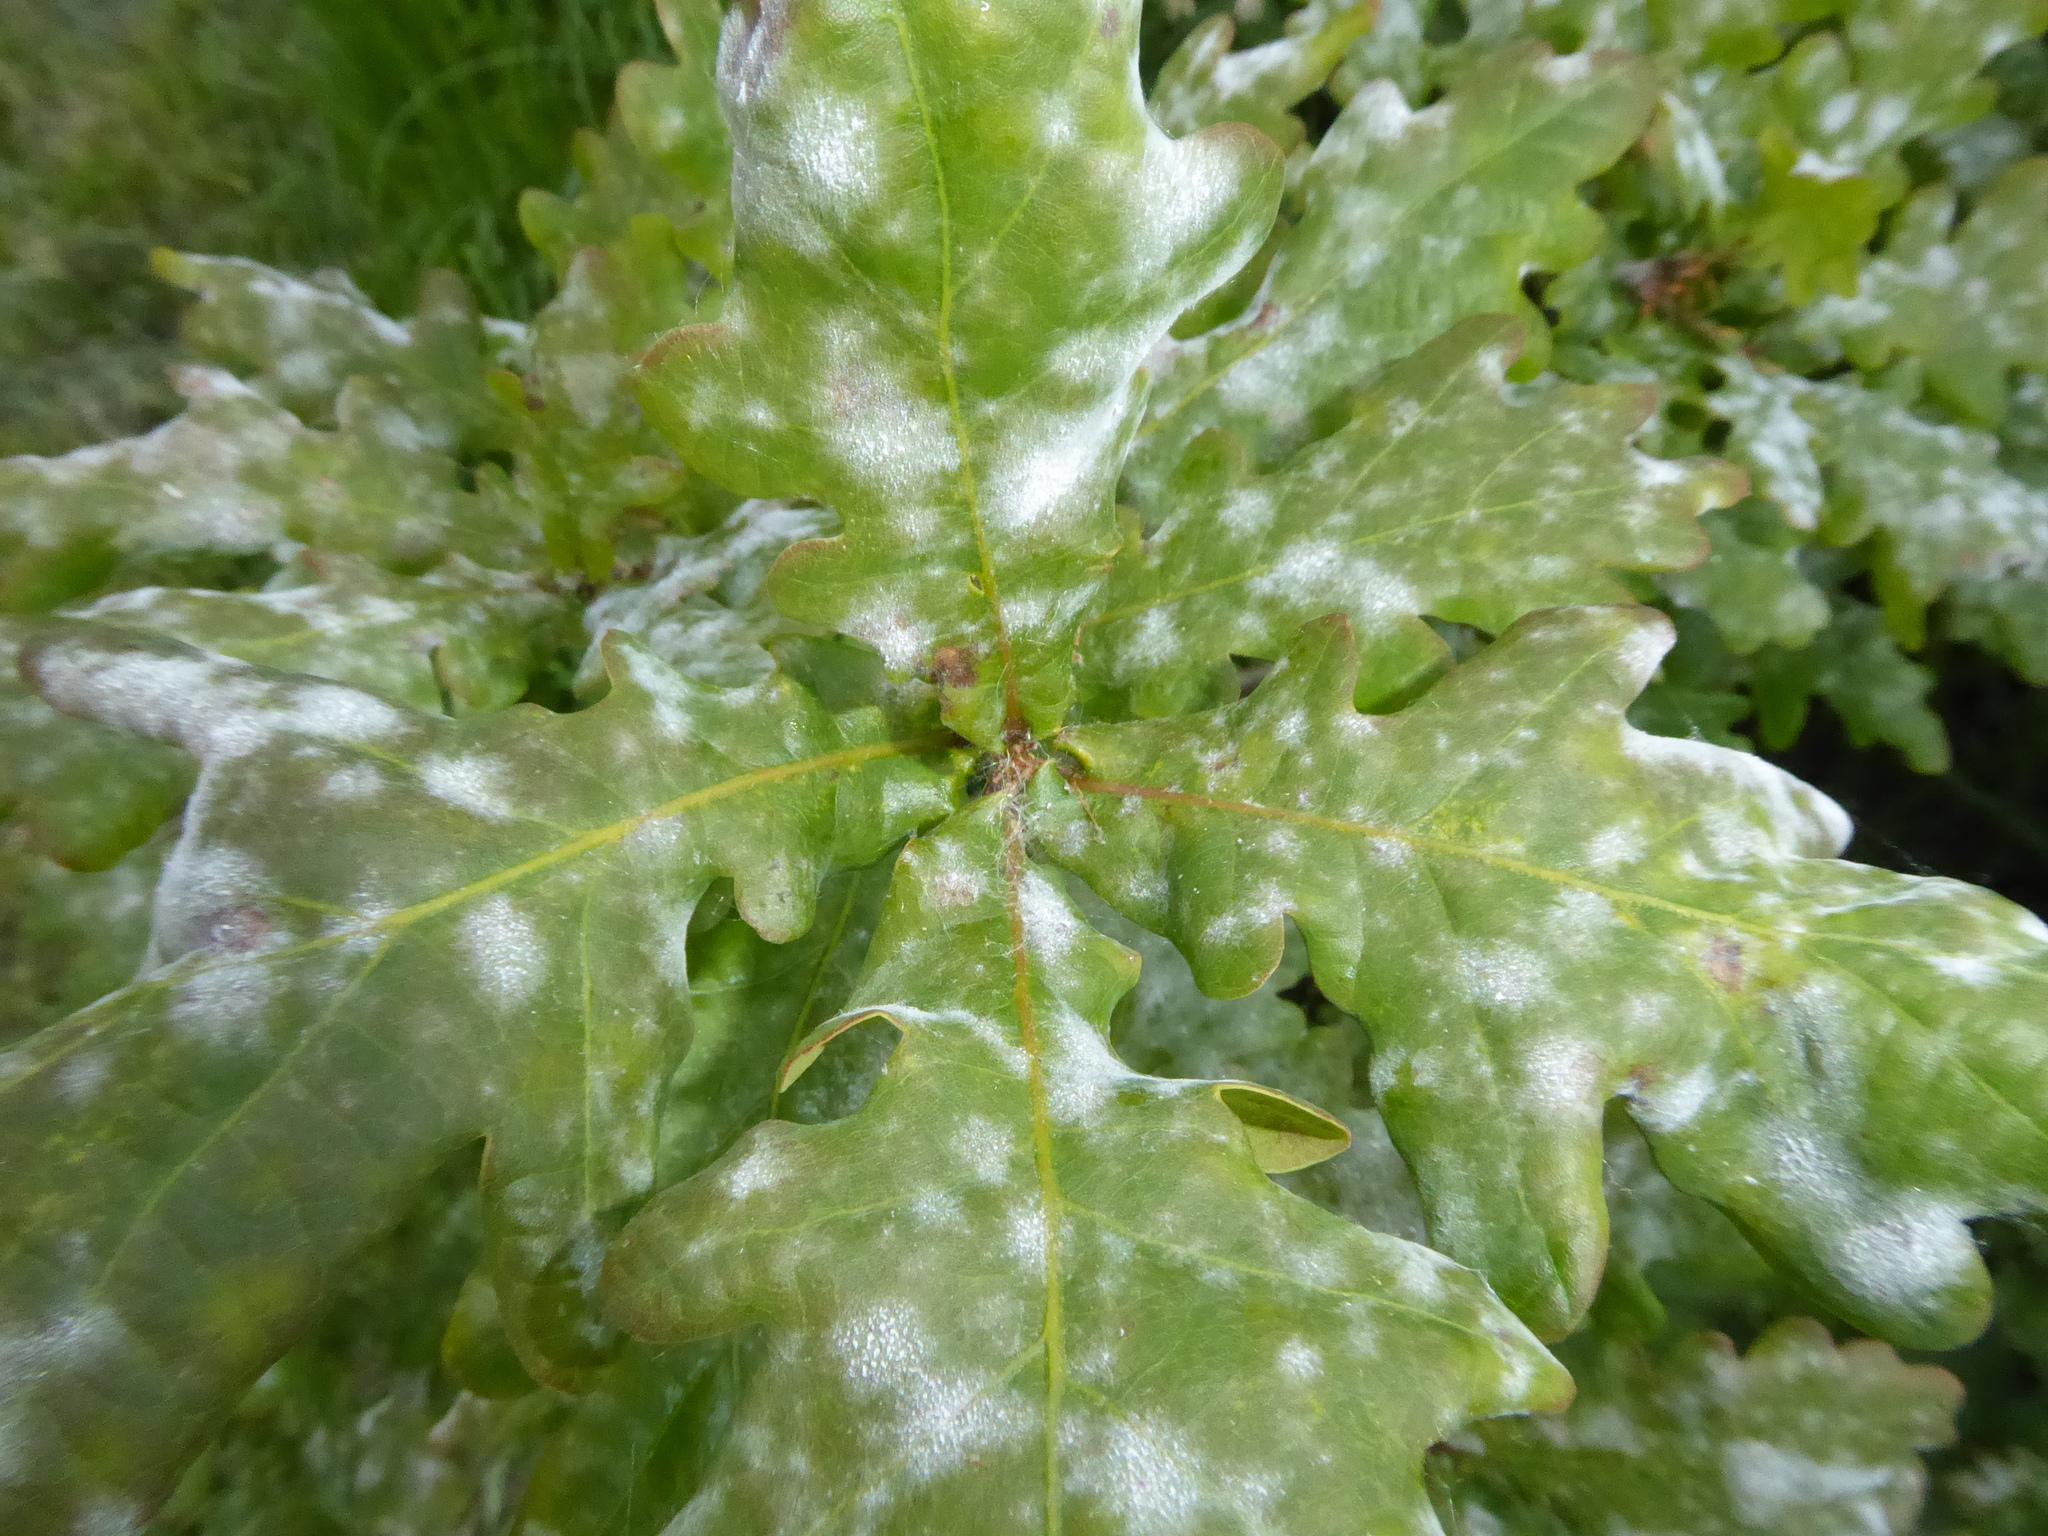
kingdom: Fungi
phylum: Ascomycota
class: Leotiomycetes
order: Helotiales
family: Erysiphaceae
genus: Erysiphe
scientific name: Erysiphe alphitoides
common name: Oak mildew
